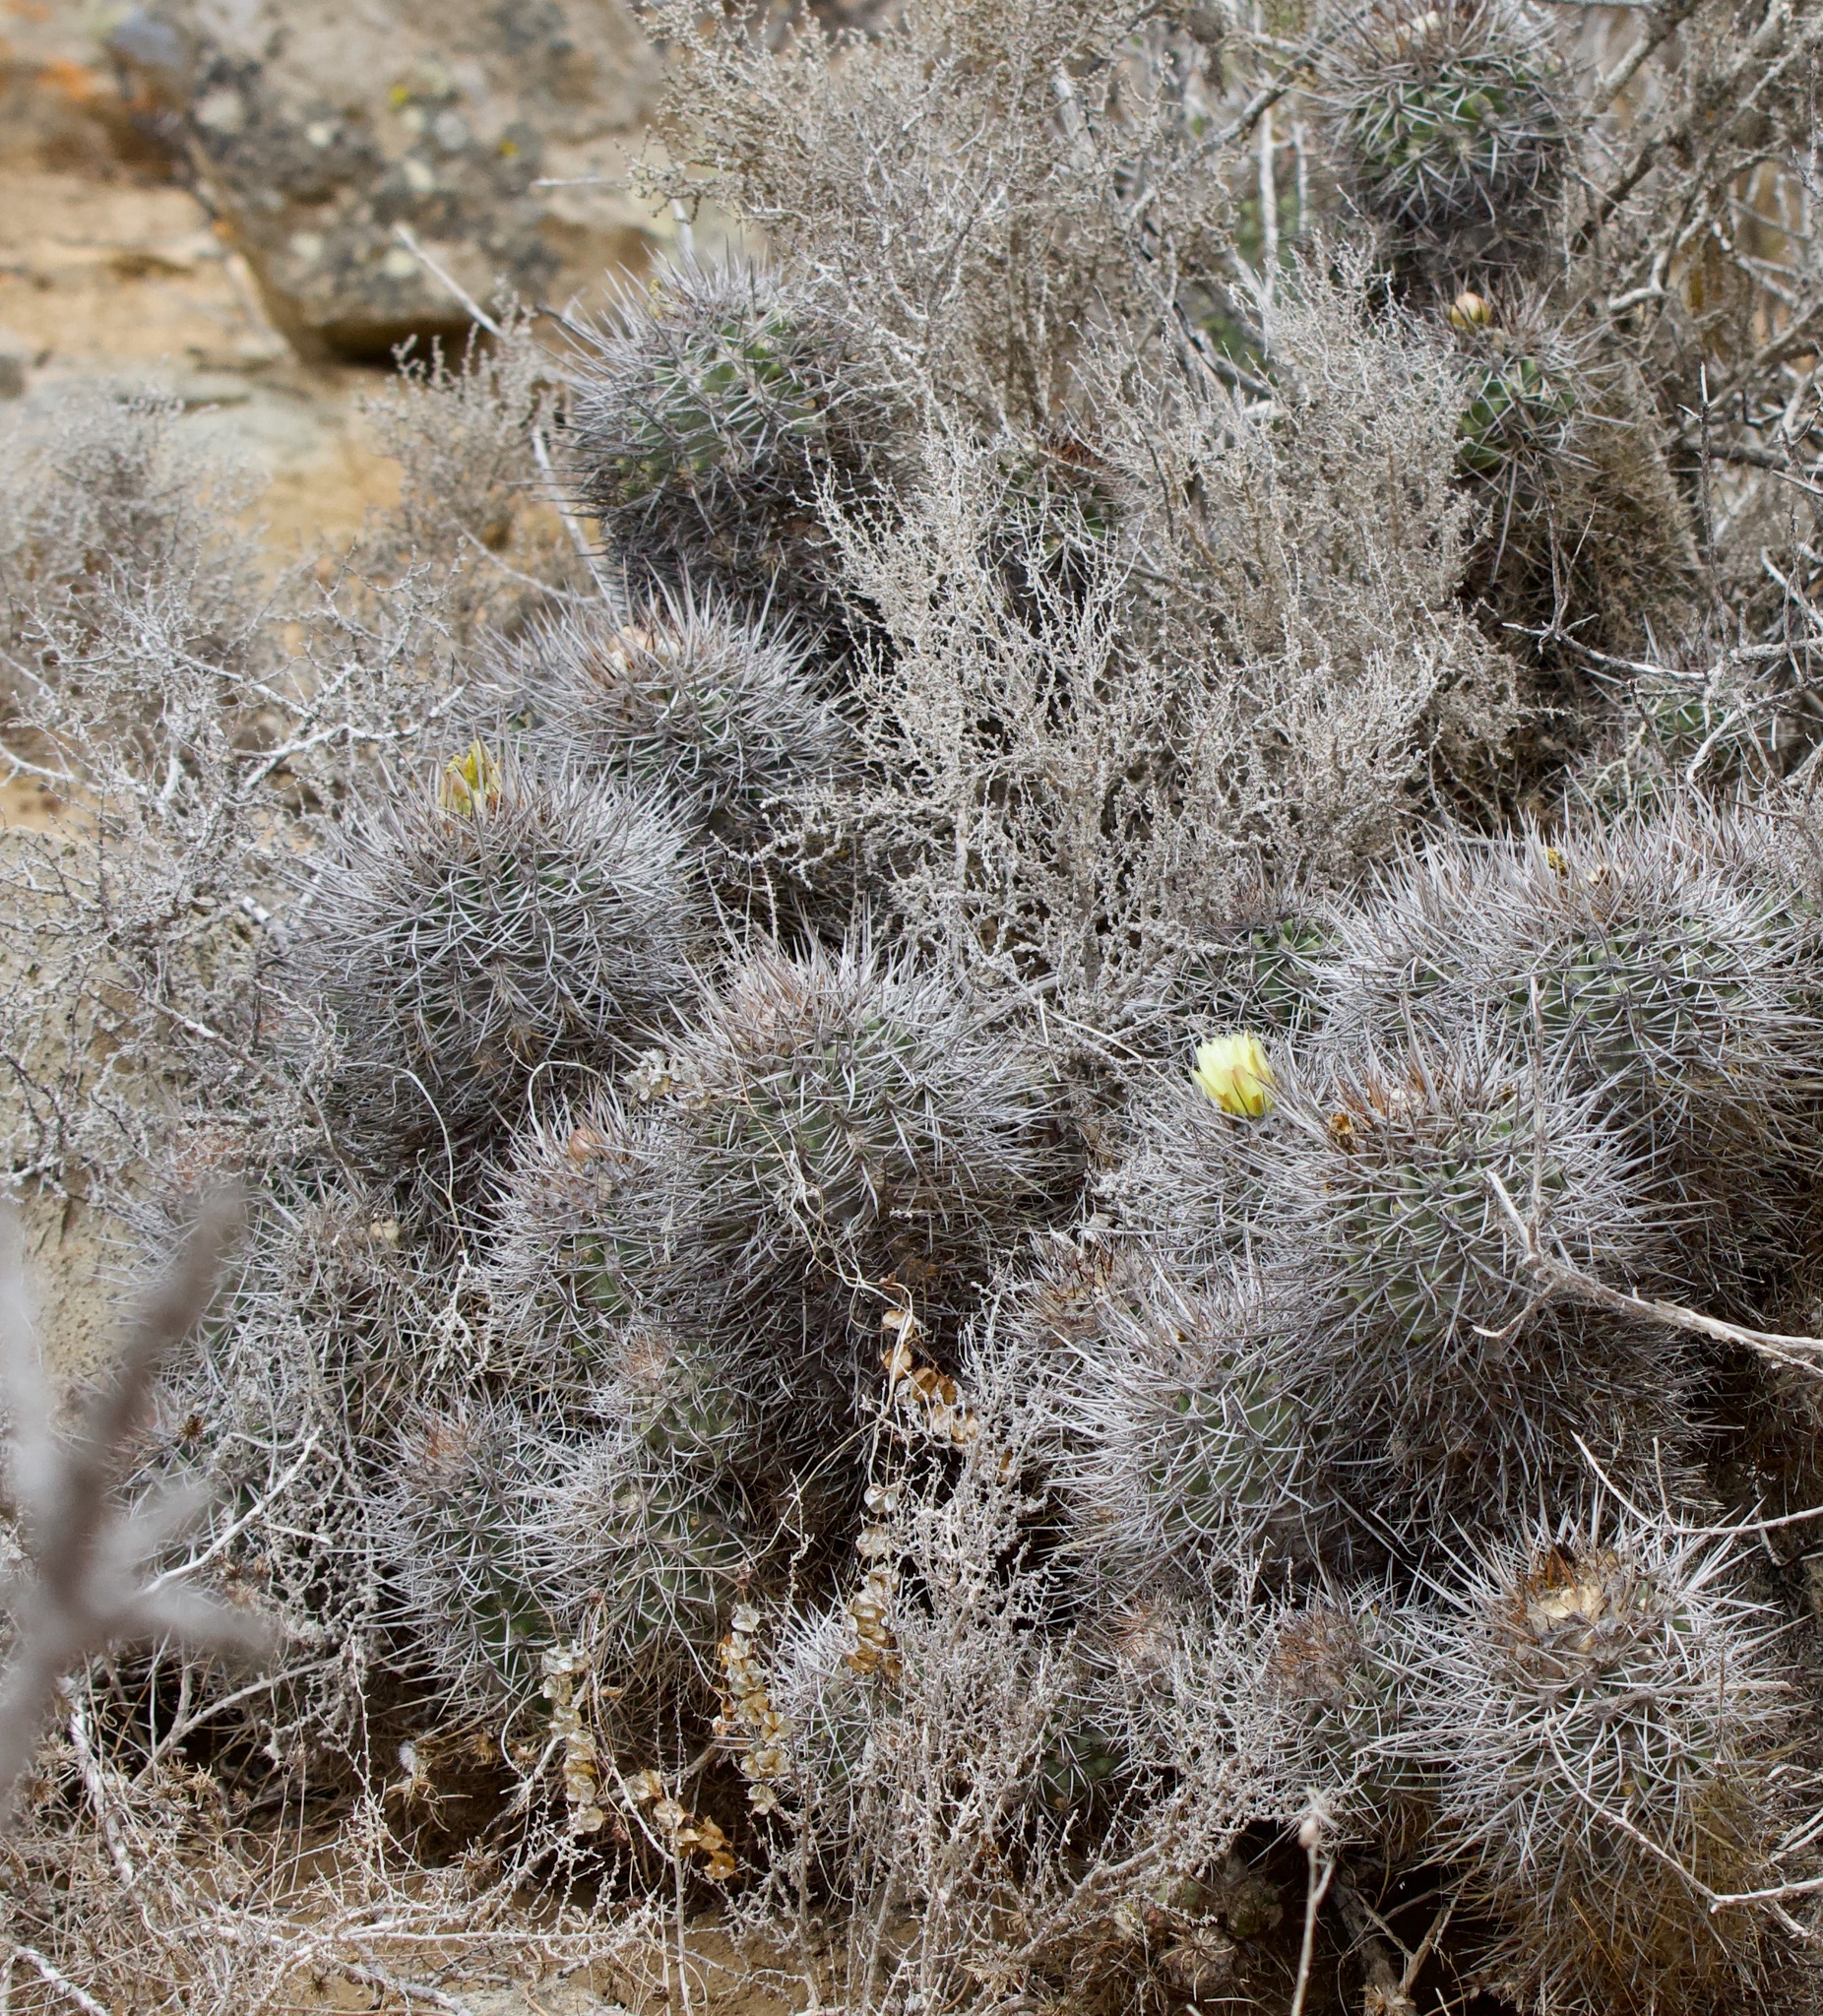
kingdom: Plantae
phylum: Tracheophyta
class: Magnoliopsida
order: Caryophyllales
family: Cactaceae
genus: Copiapoa
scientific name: Copiapoa coquimbana
